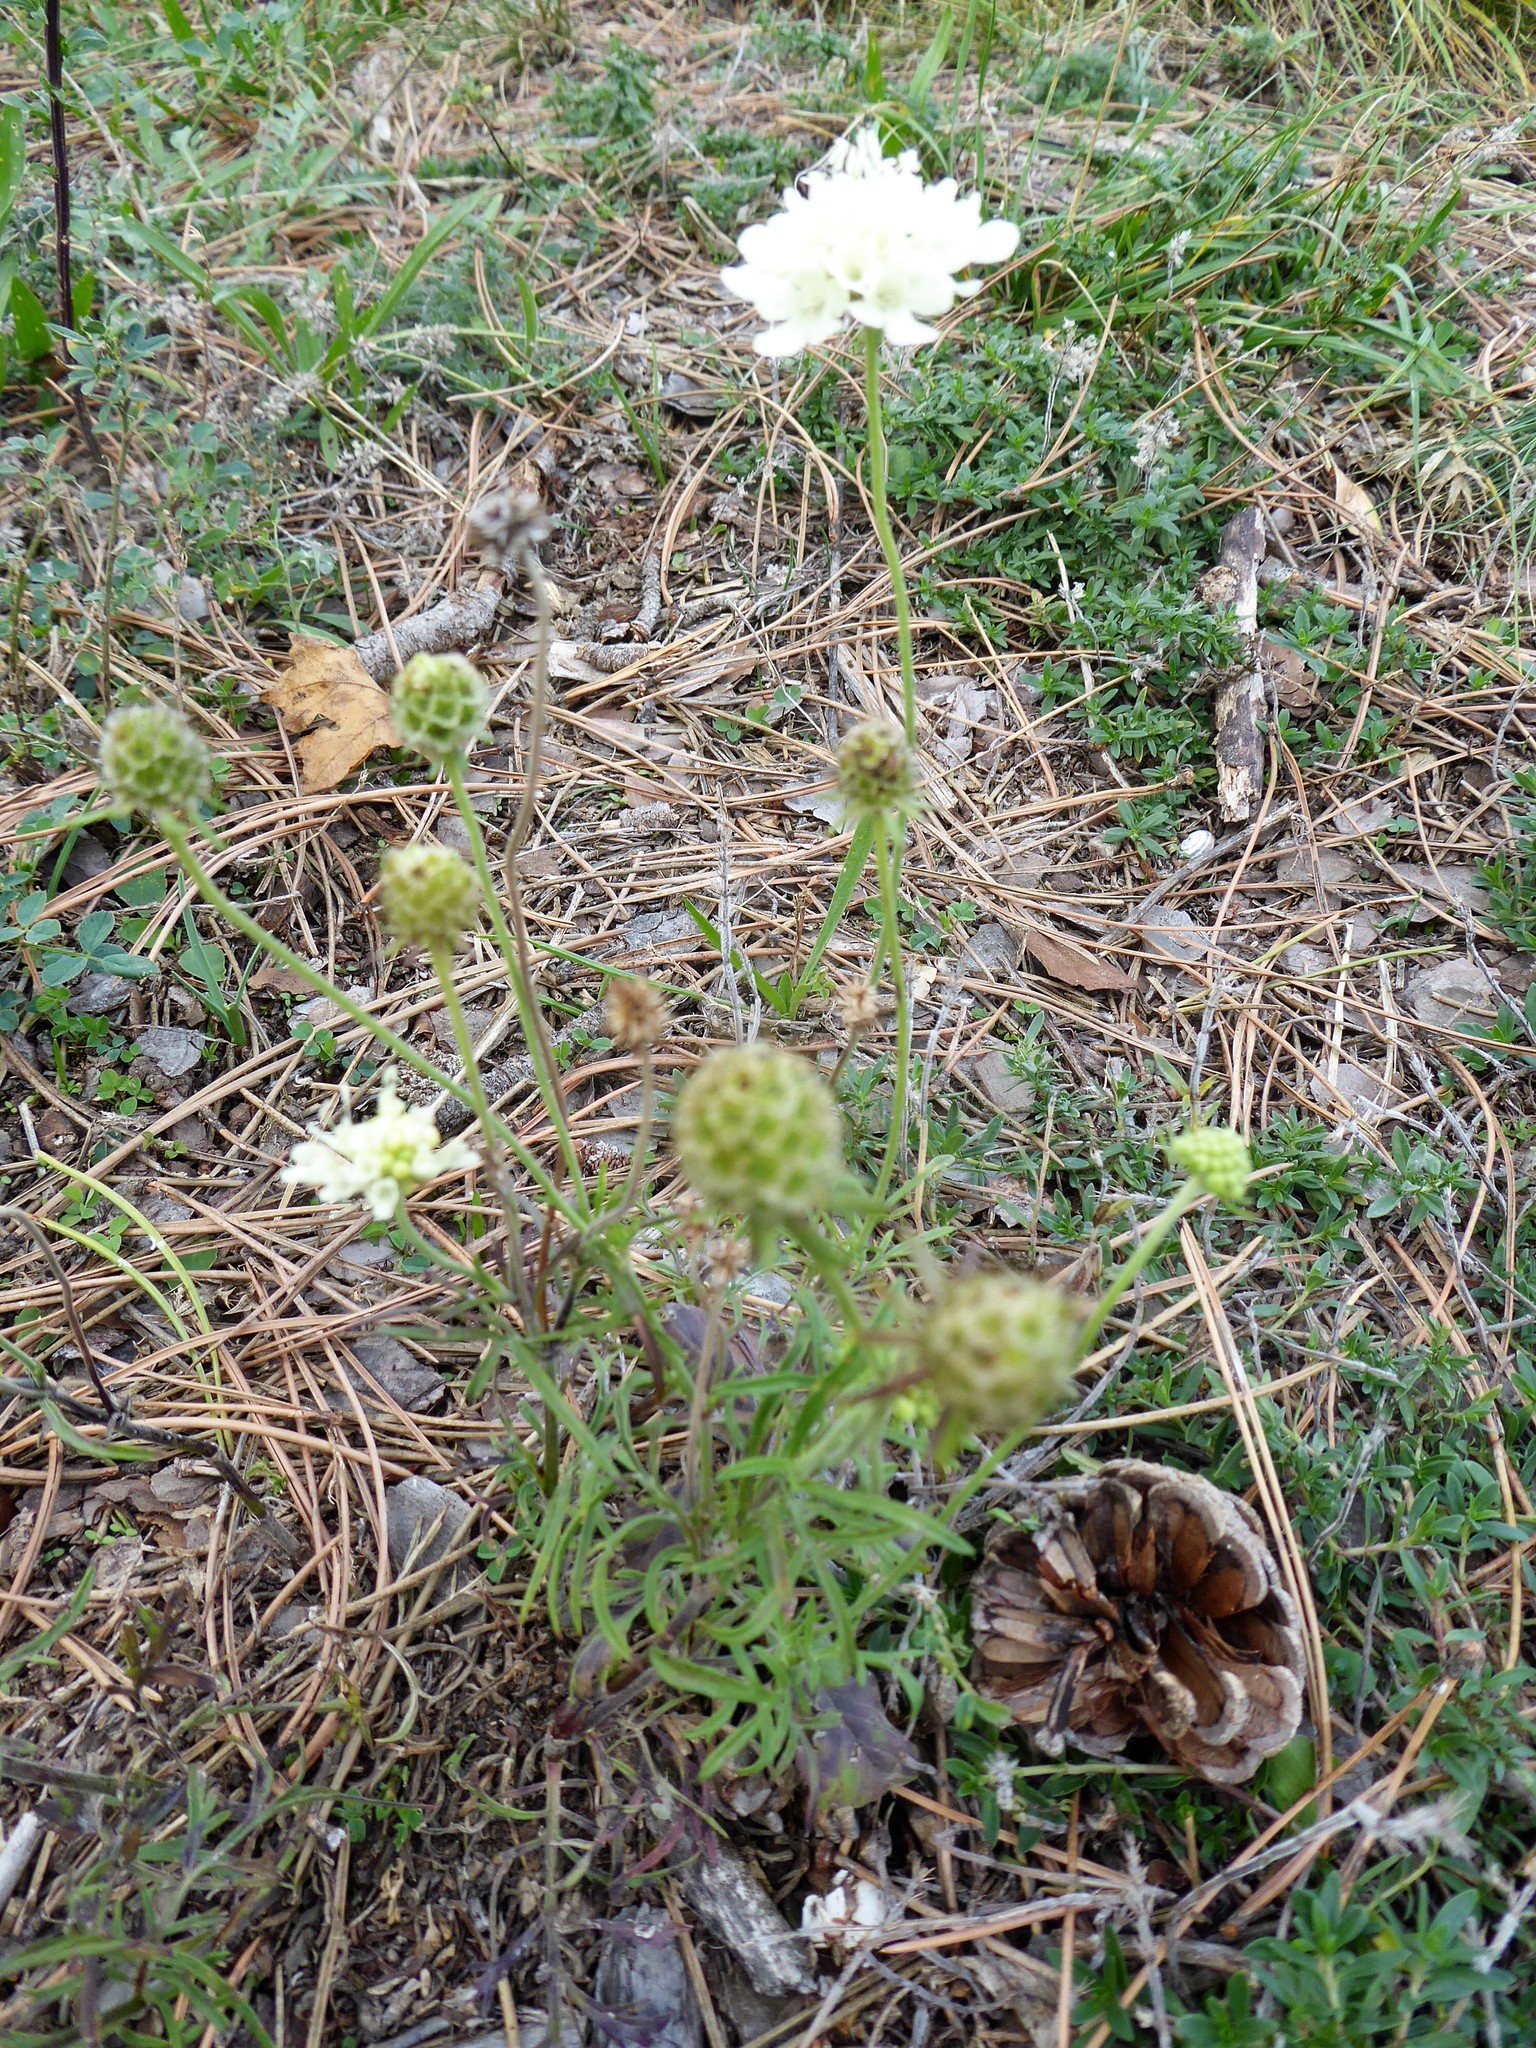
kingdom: Plantae
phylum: Tracheophyta
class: Magnoliopsida
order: Dipsacales
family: Caprifoliaceae
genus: Scabiosa
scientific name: Scabiosa ochroleuca
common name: Cream pincushions
